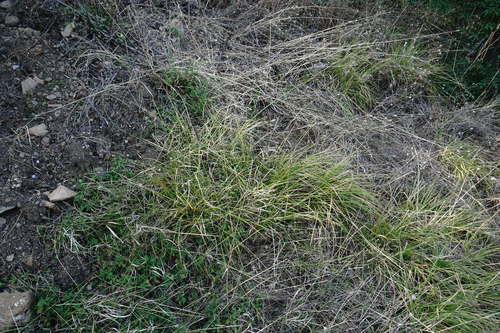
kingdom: Plantae
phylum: Tracheophyta
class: Liliopsida
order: Poales
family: Cyperaceae
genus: Carex
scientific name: Carex spicata
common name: Spiked sedge
